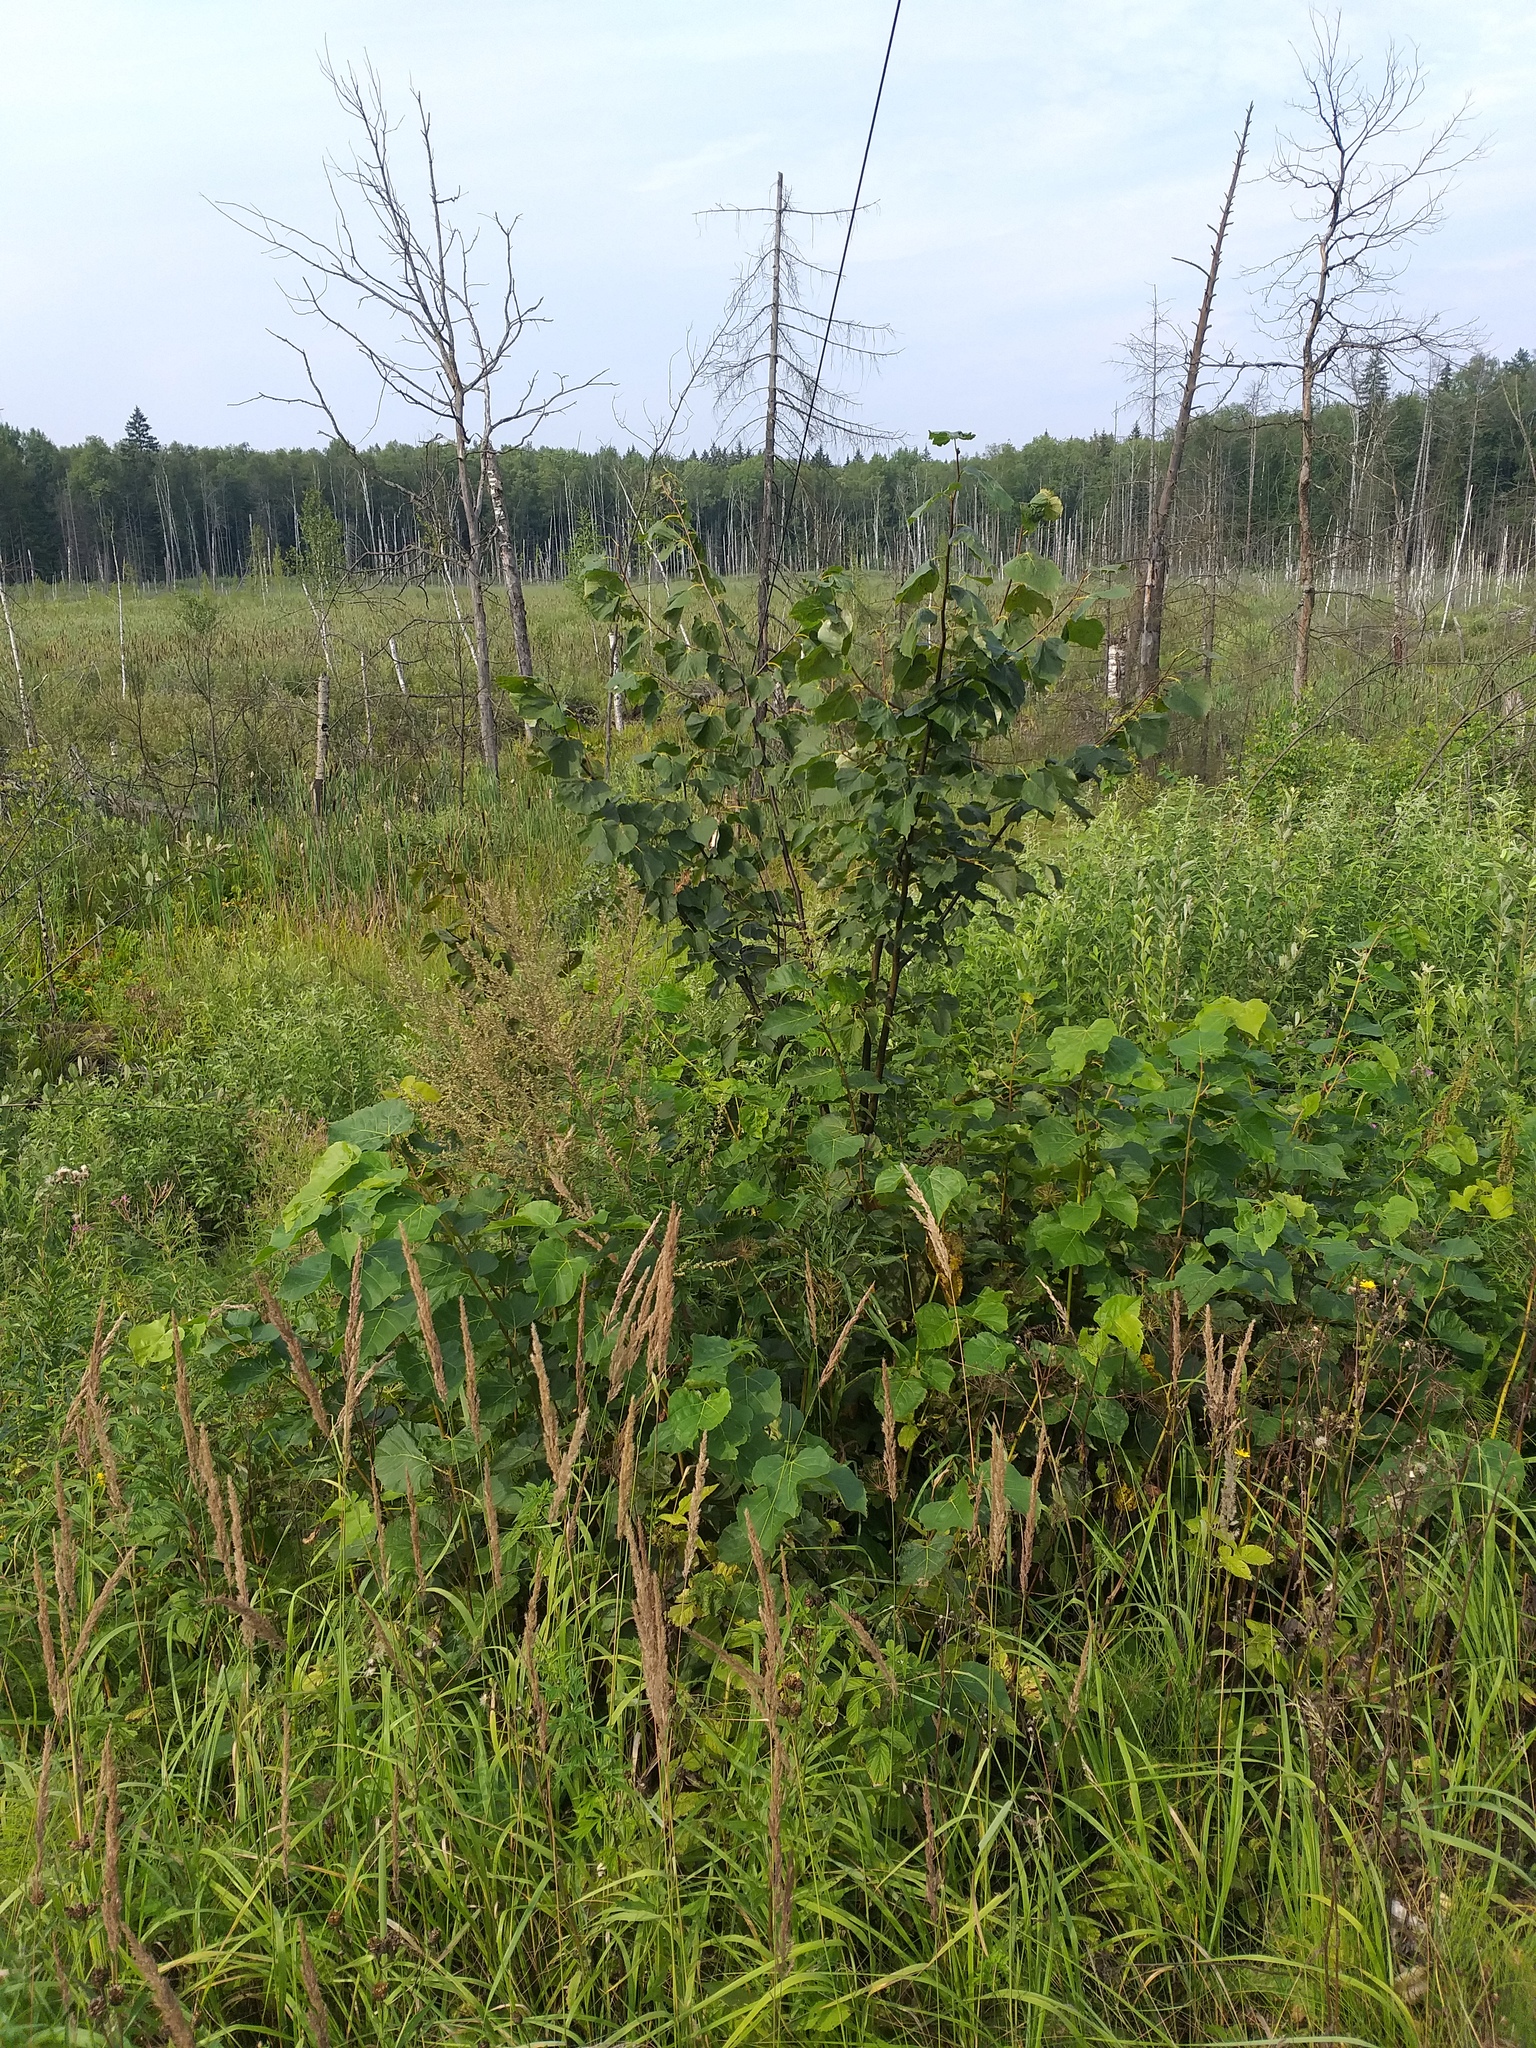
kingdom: Plantae
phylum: Tracheophyta
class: Magnoliopsida
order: Malvales
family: Malvaceae
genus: Tilia
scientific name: Tilia cordata
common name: Small-leaved lime
